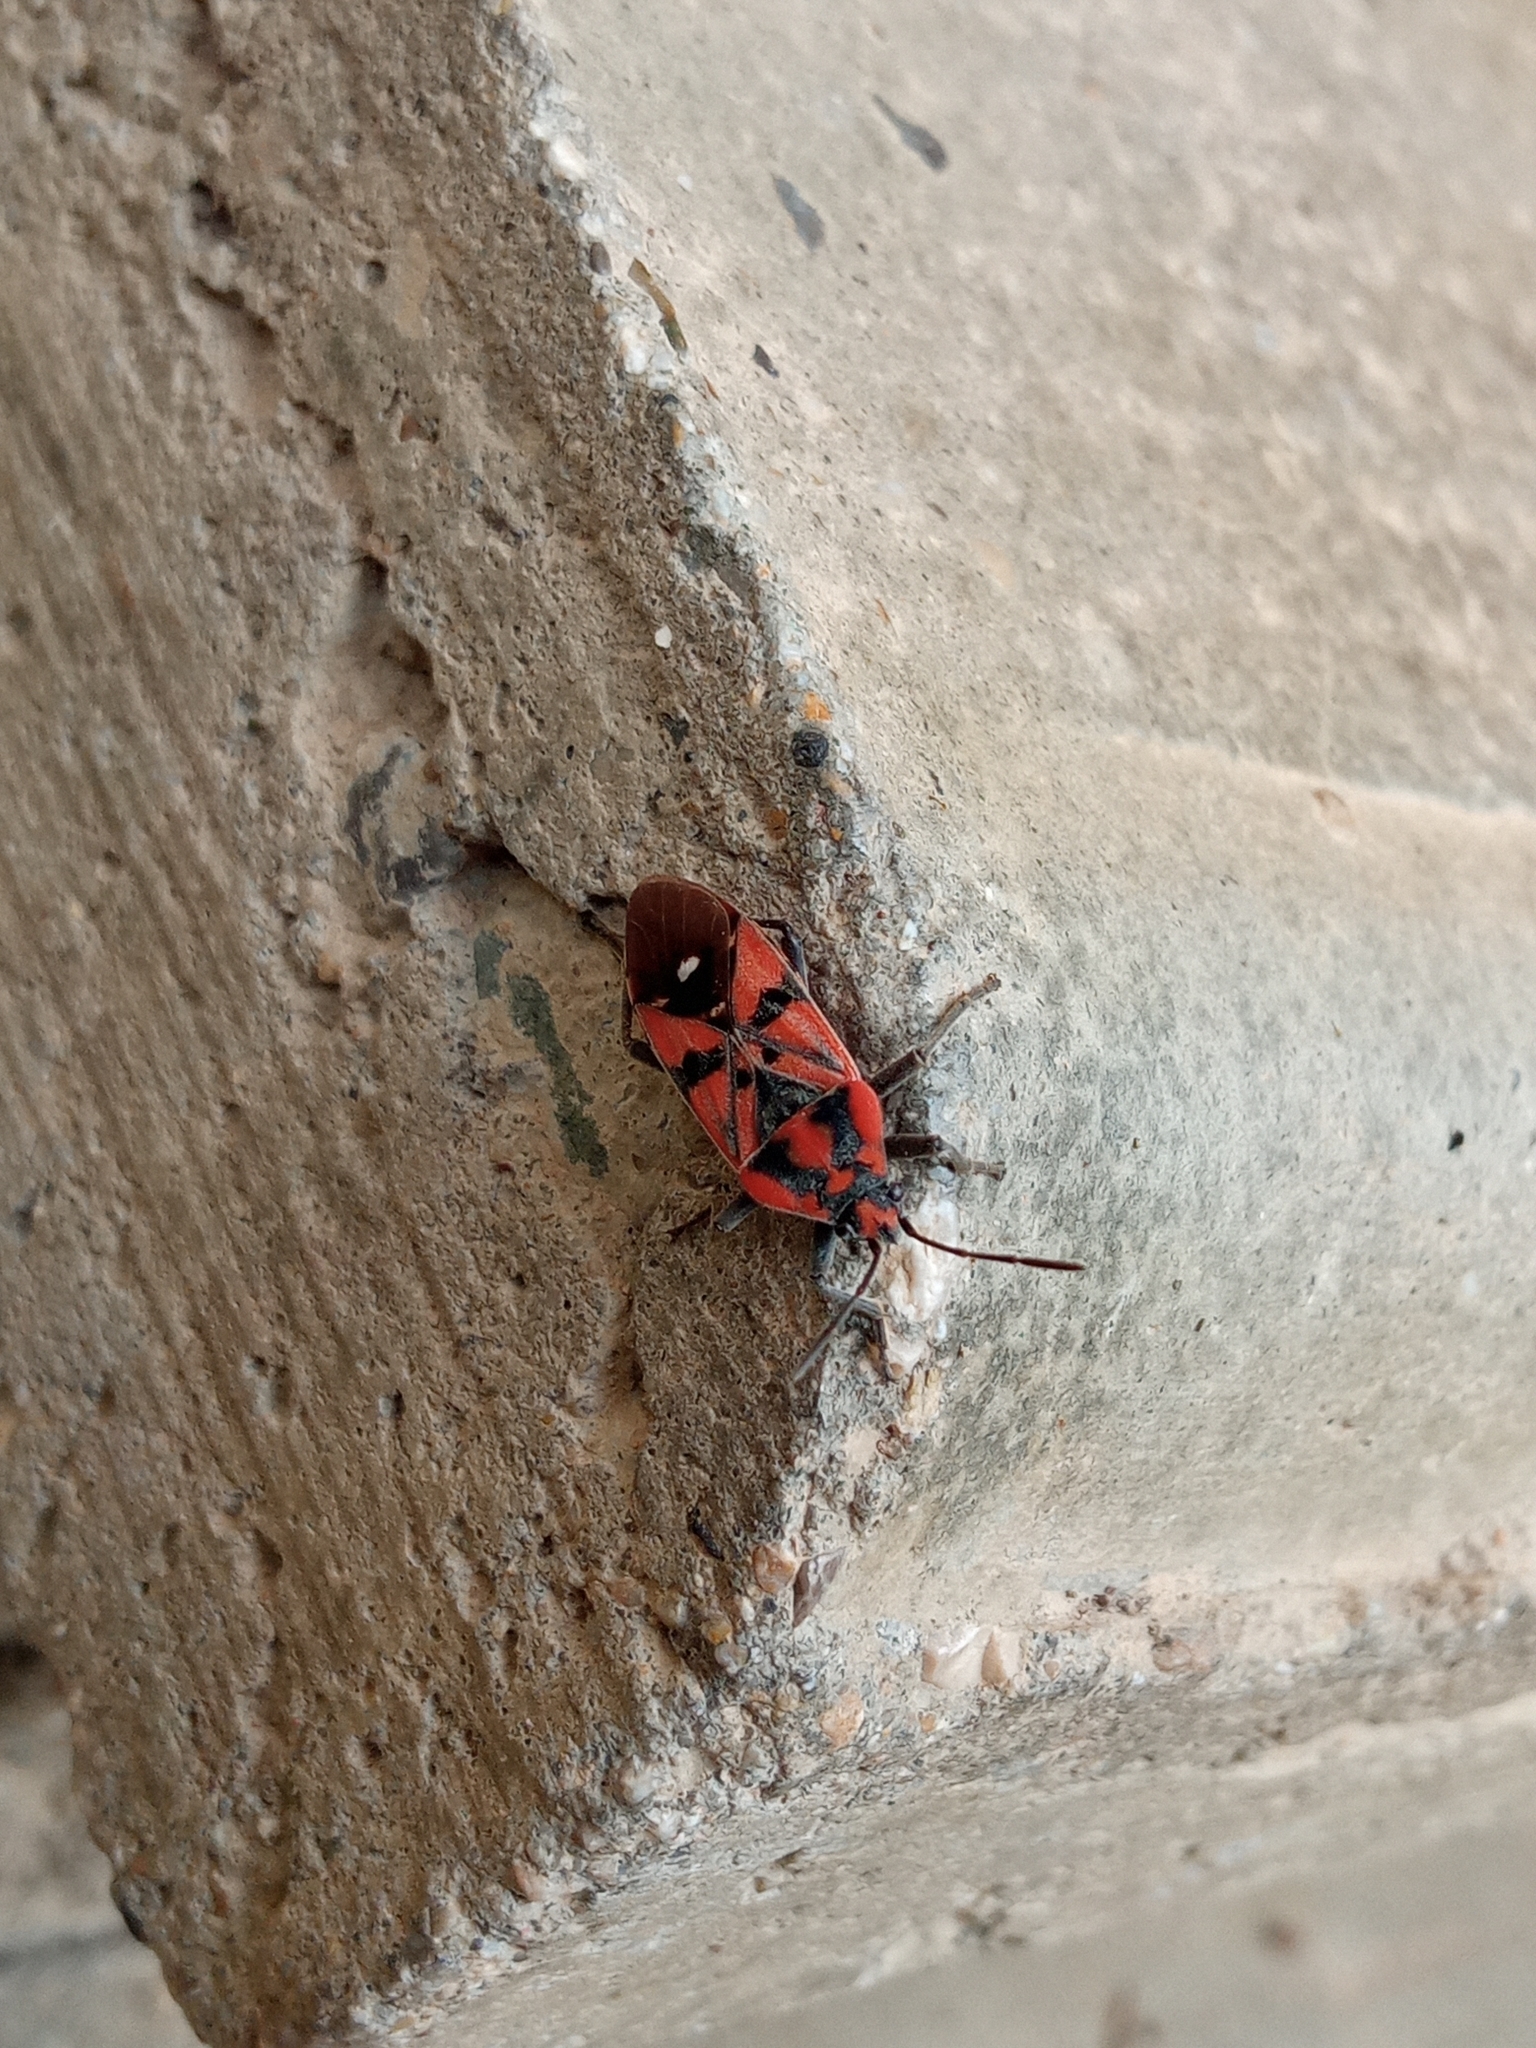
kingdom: Animalia
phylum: Arthropoda
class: Insecta
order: Hemiptera
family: Lygaeidae
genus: Spilostethus
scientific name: Spilostethus pandurus
